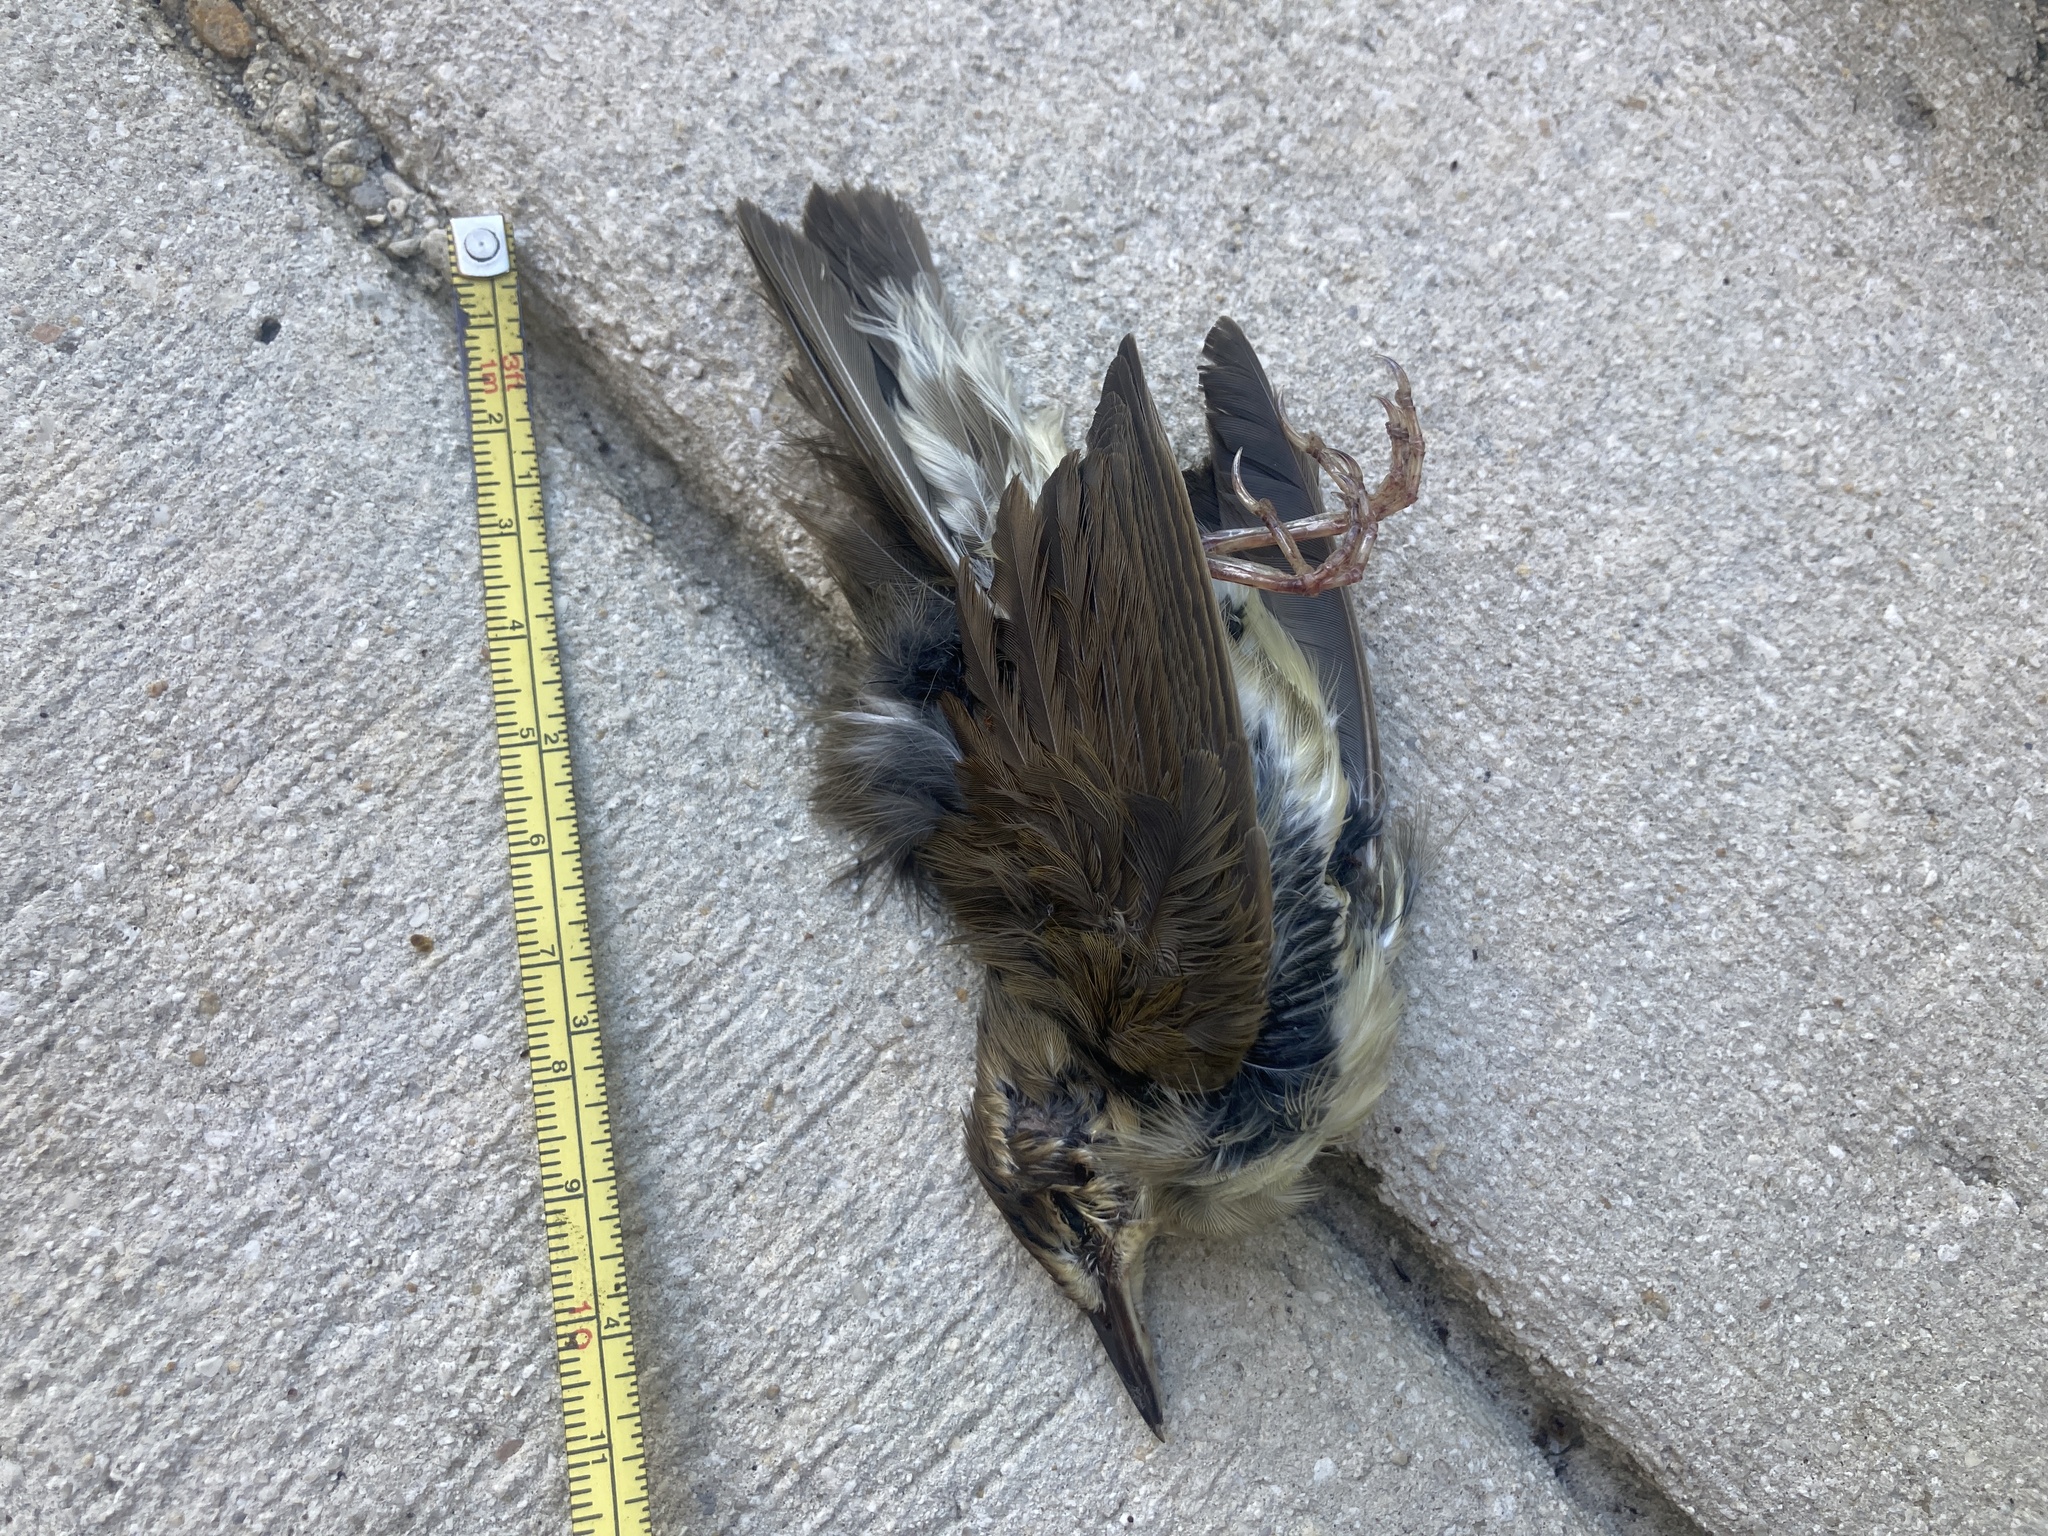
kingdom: Animalia
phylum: Chordata
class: Aves
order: Passeriformes
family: Parulidae
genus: Limnothlypis
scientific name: Limnothlypis swainsonii
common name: Swainson's warbler
